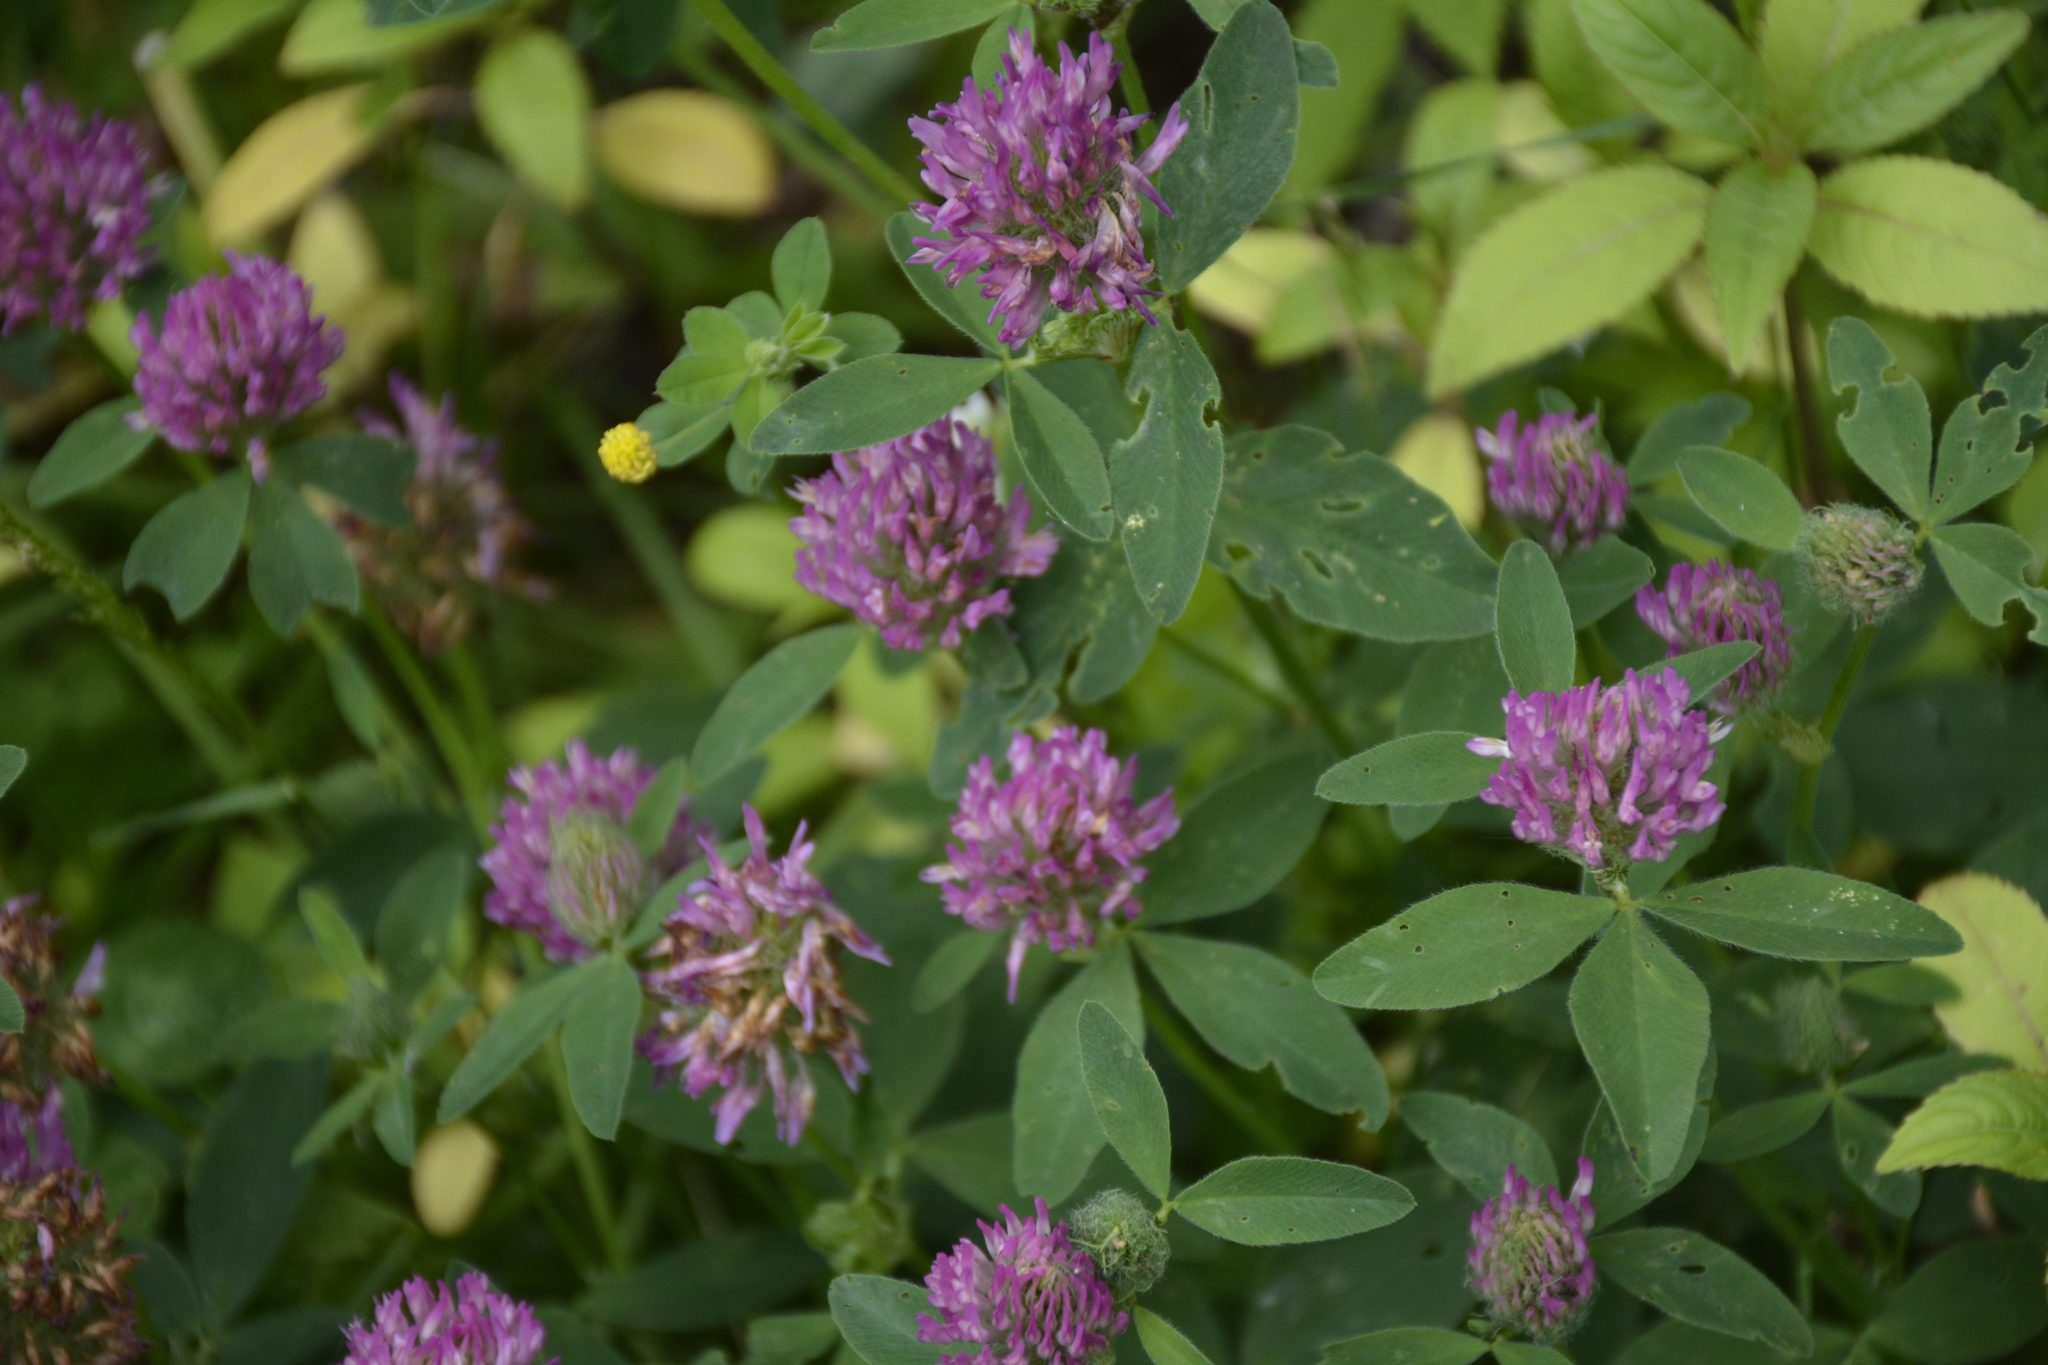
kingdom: Plantae
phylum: Tracheophyta
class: Magnoliopsida
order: Fabales
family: Fabaceae
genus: Trifolium
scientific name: Trifolium pratense
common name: Red clover
